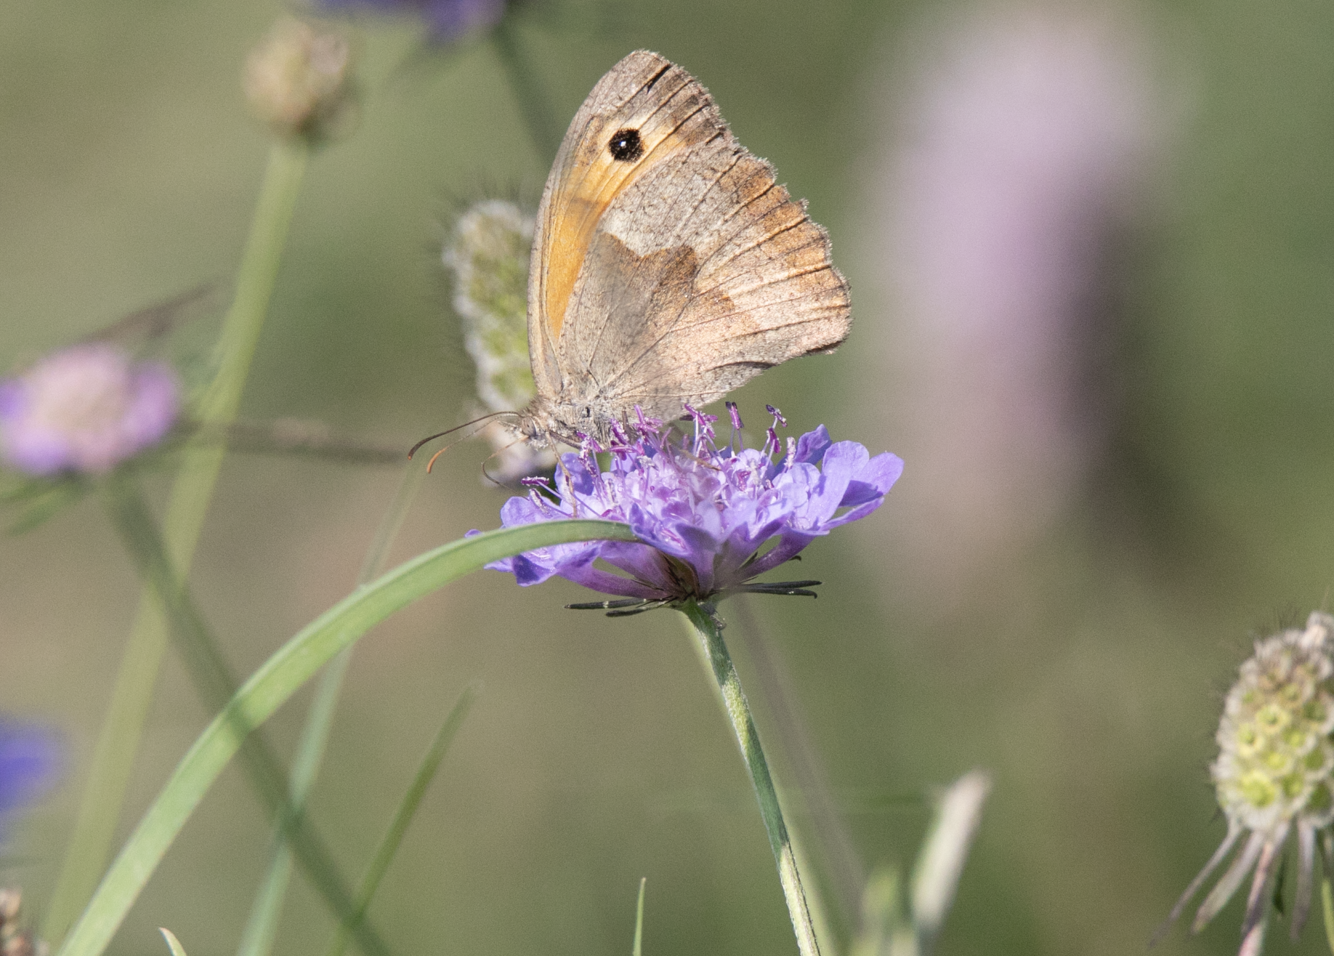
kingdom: Animalia
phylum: Arthropoda
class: Insecta
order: Lepidoptera
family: Nymphalidae
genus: Maniola
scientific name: Maniola jurtina
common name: Meadow brown
